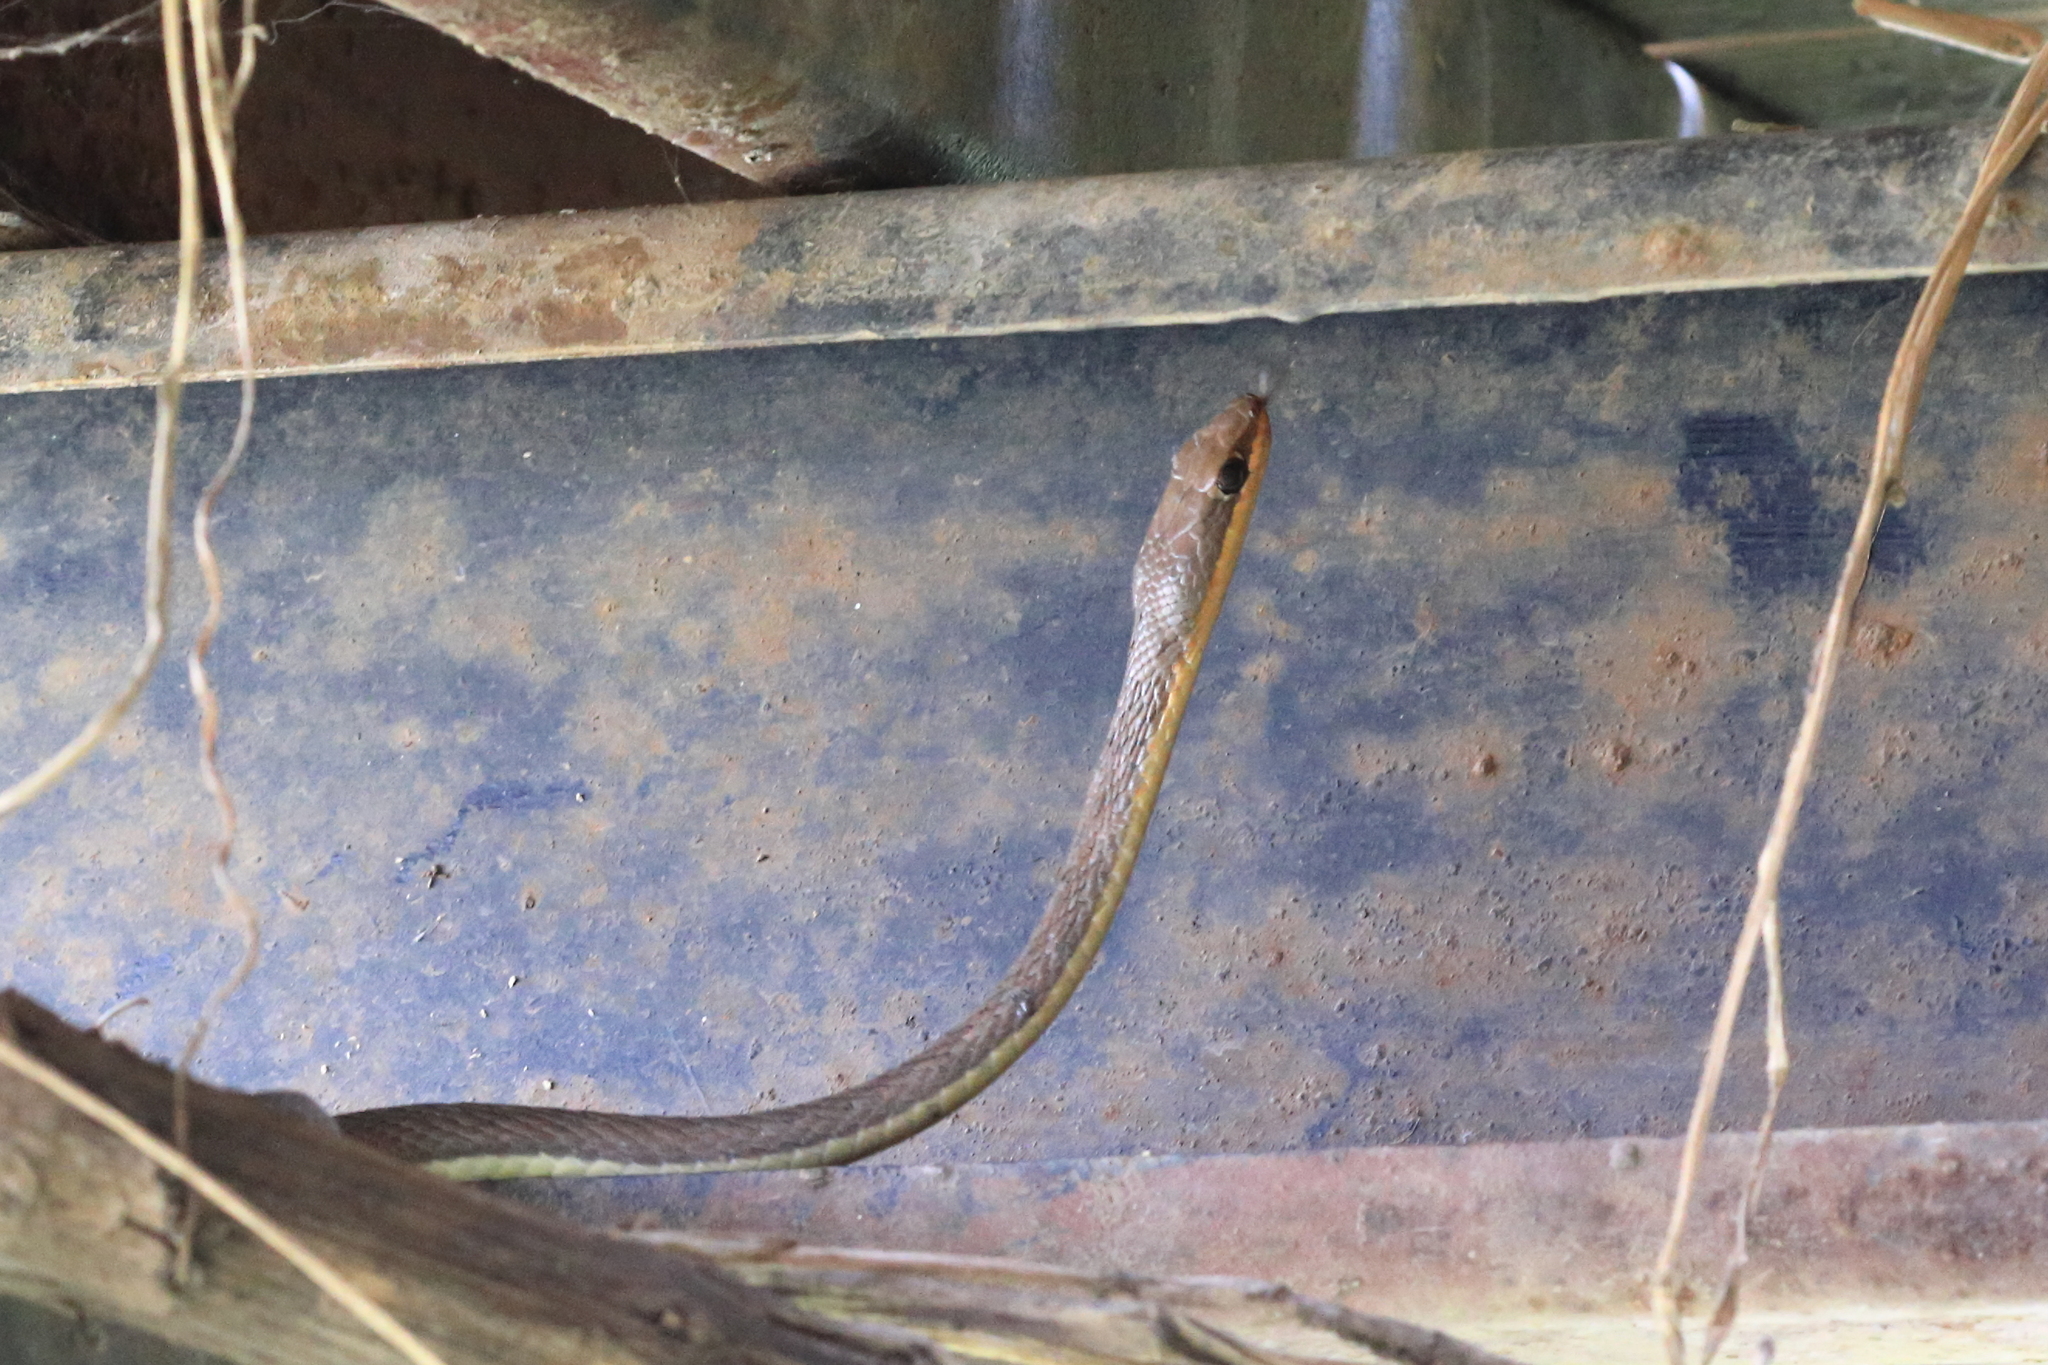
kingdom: Animalia
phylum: Chordata
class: Squamata
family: Psammophiidae
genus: Psammophis
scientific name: Psammophis jallae
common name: Jalla's sand snake
